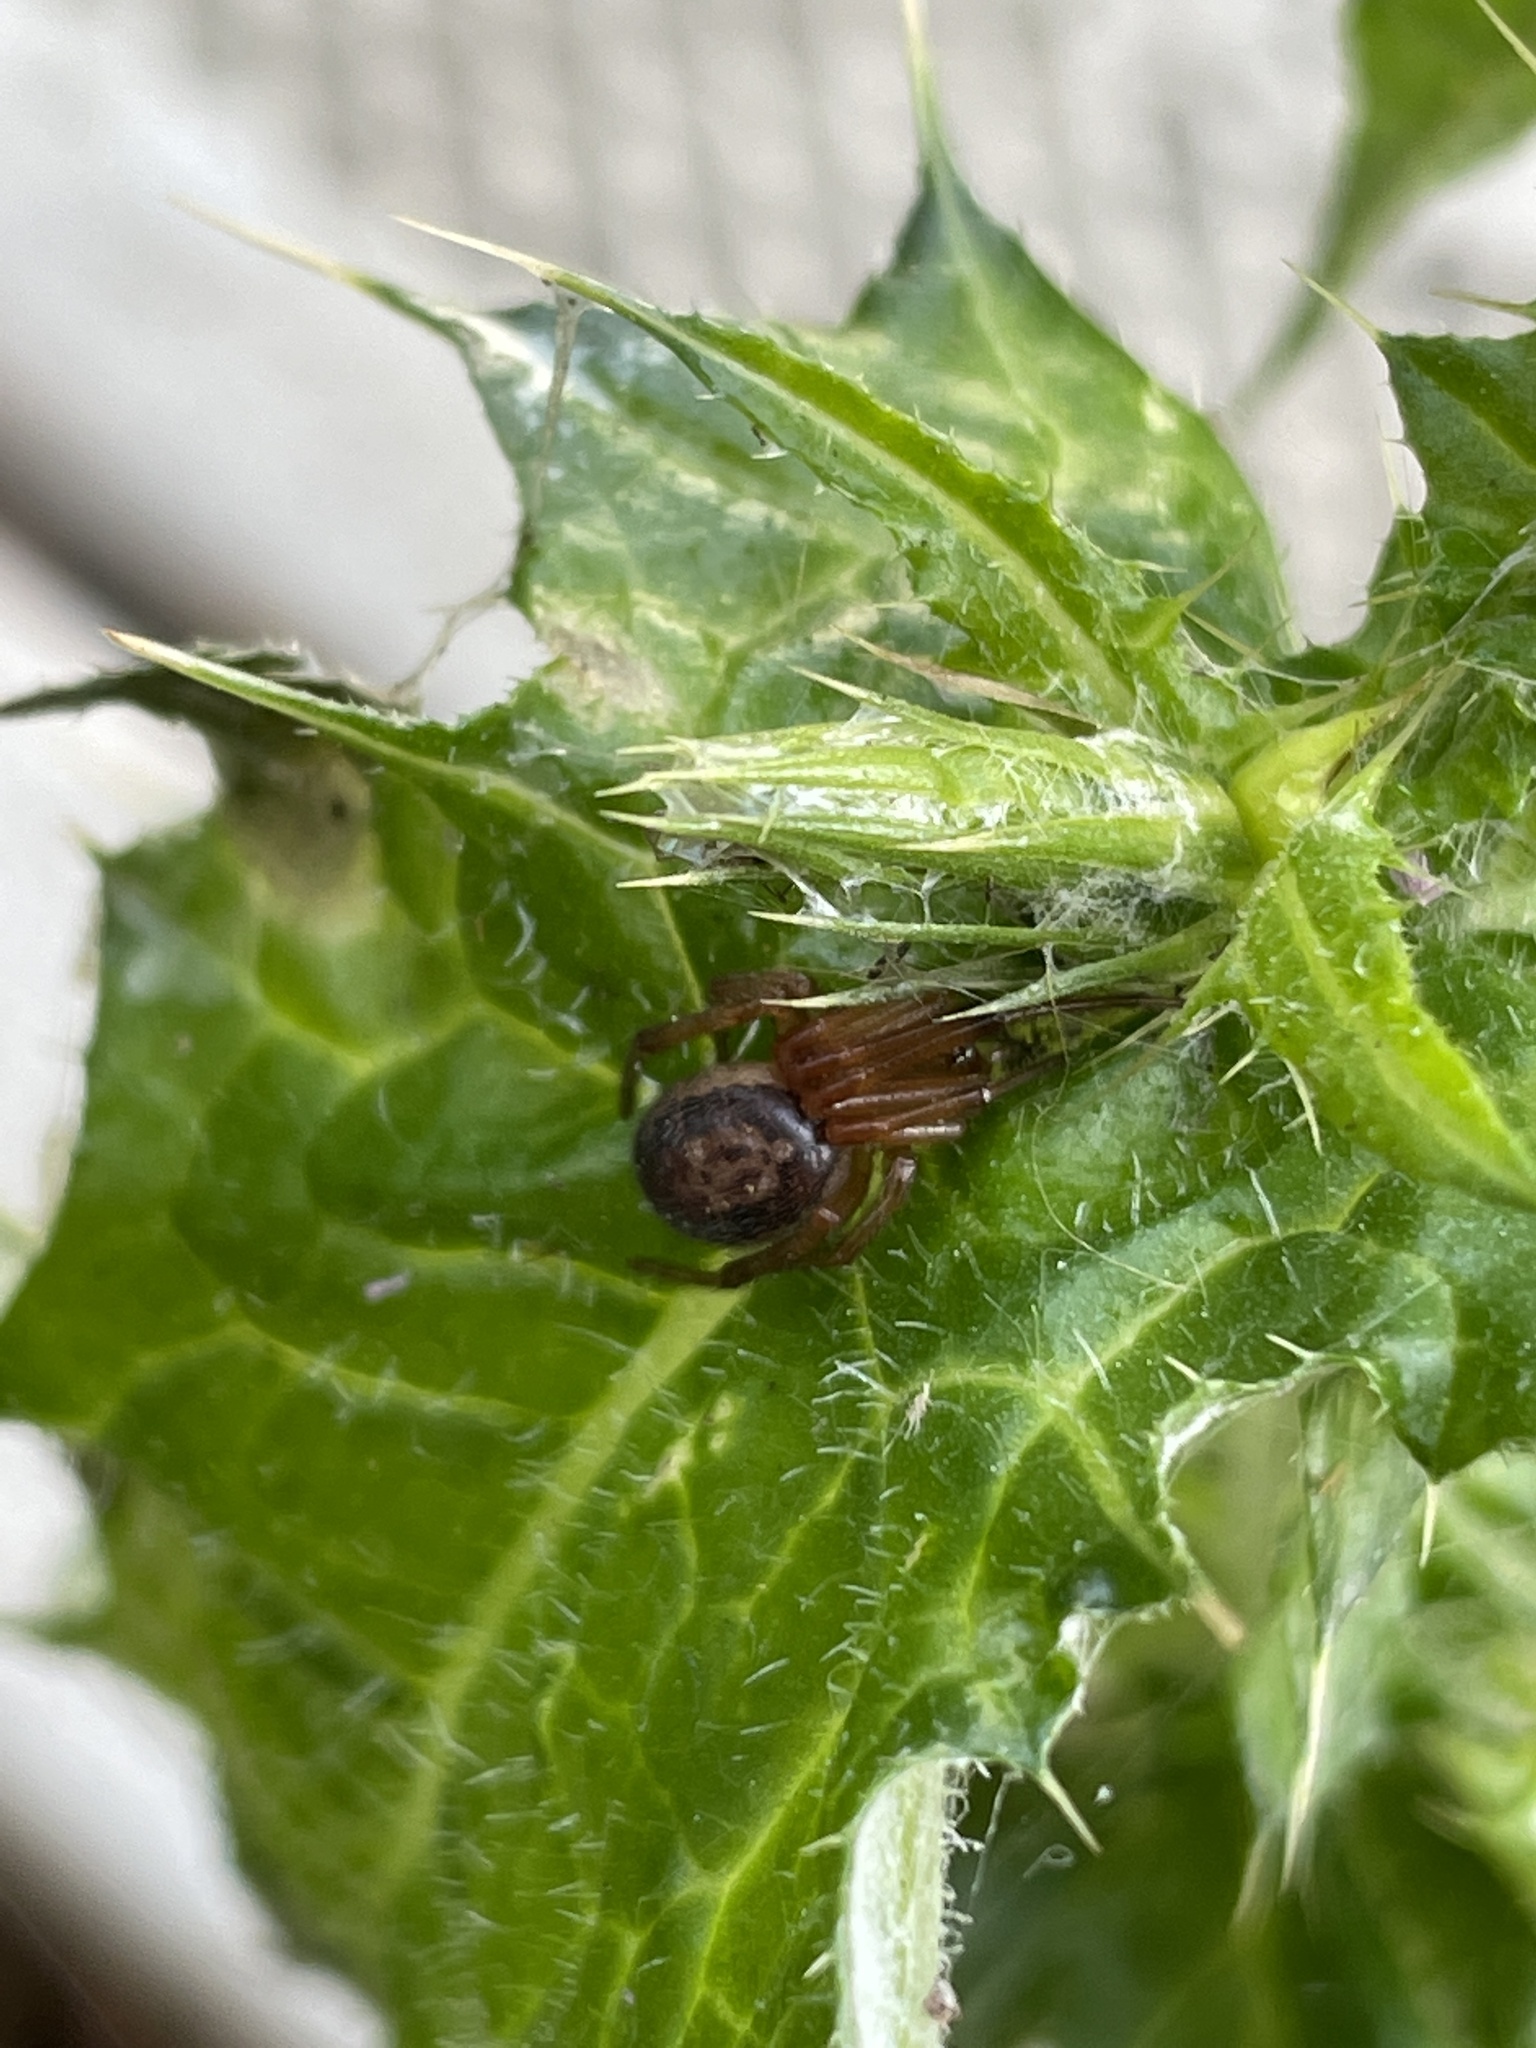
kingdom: Animalia
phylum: Arthropoda
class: Arachnida
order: Araneae
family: Theridiidae
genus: Steatoda
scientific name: Steatoda nobilis
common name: Cobweb weaver
